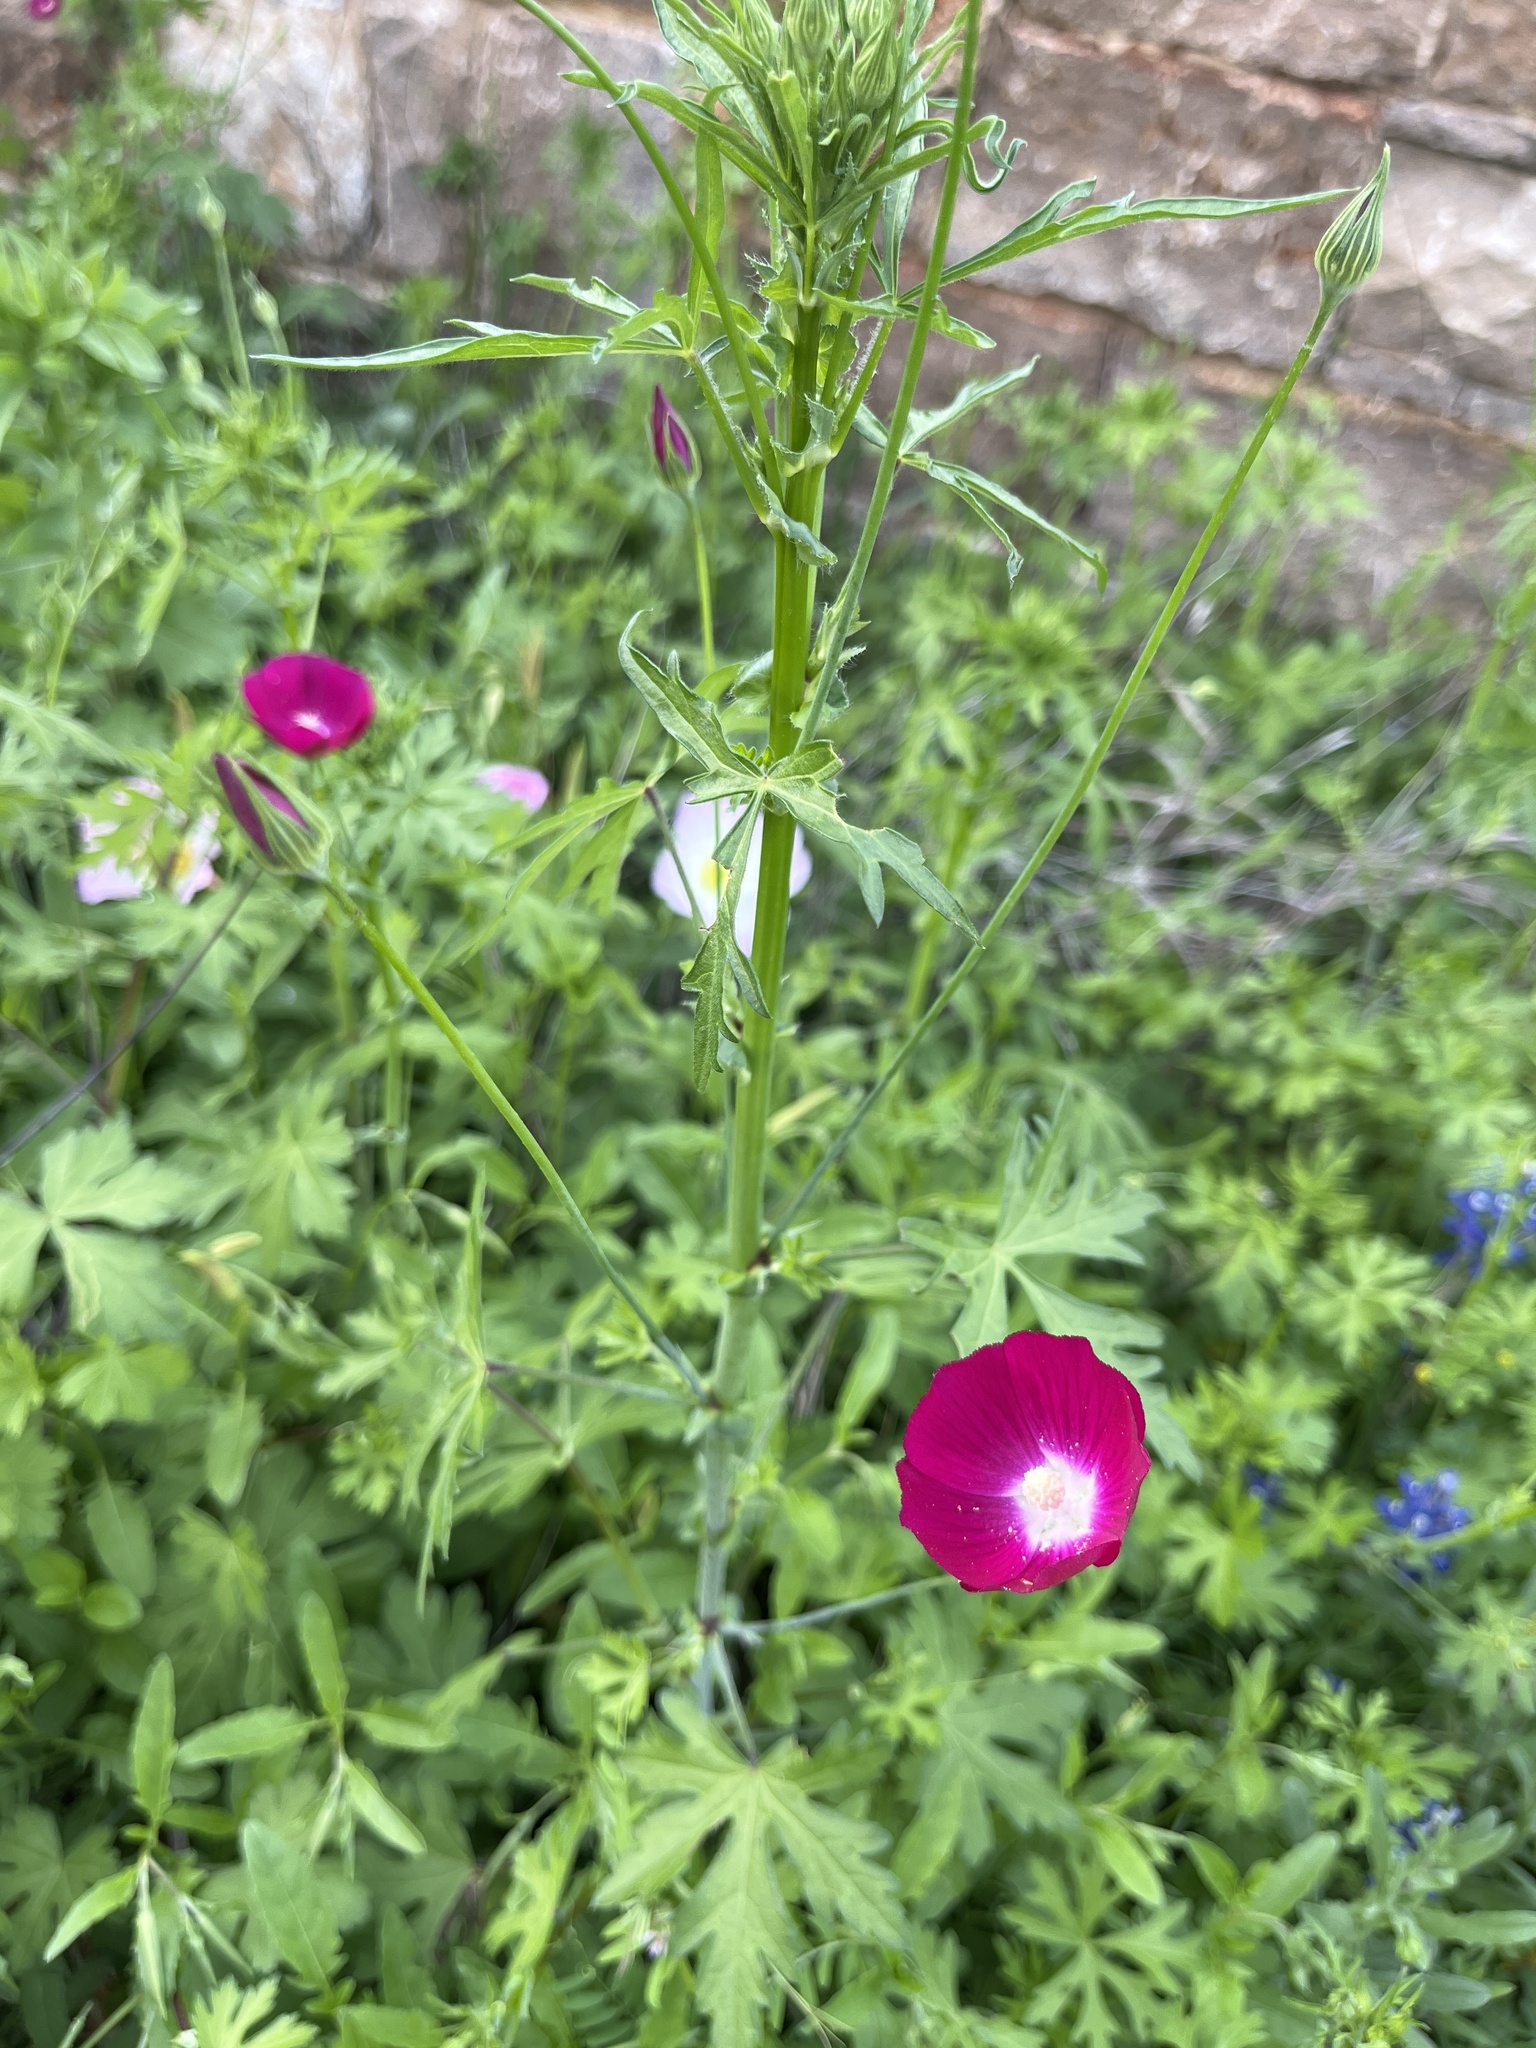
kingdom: Plantae
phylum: Tracheophyta
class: Magnoliopsida
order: Malvales
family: Malvaceae
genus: Callirhoe
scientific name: Callirhoe leiocarpa
